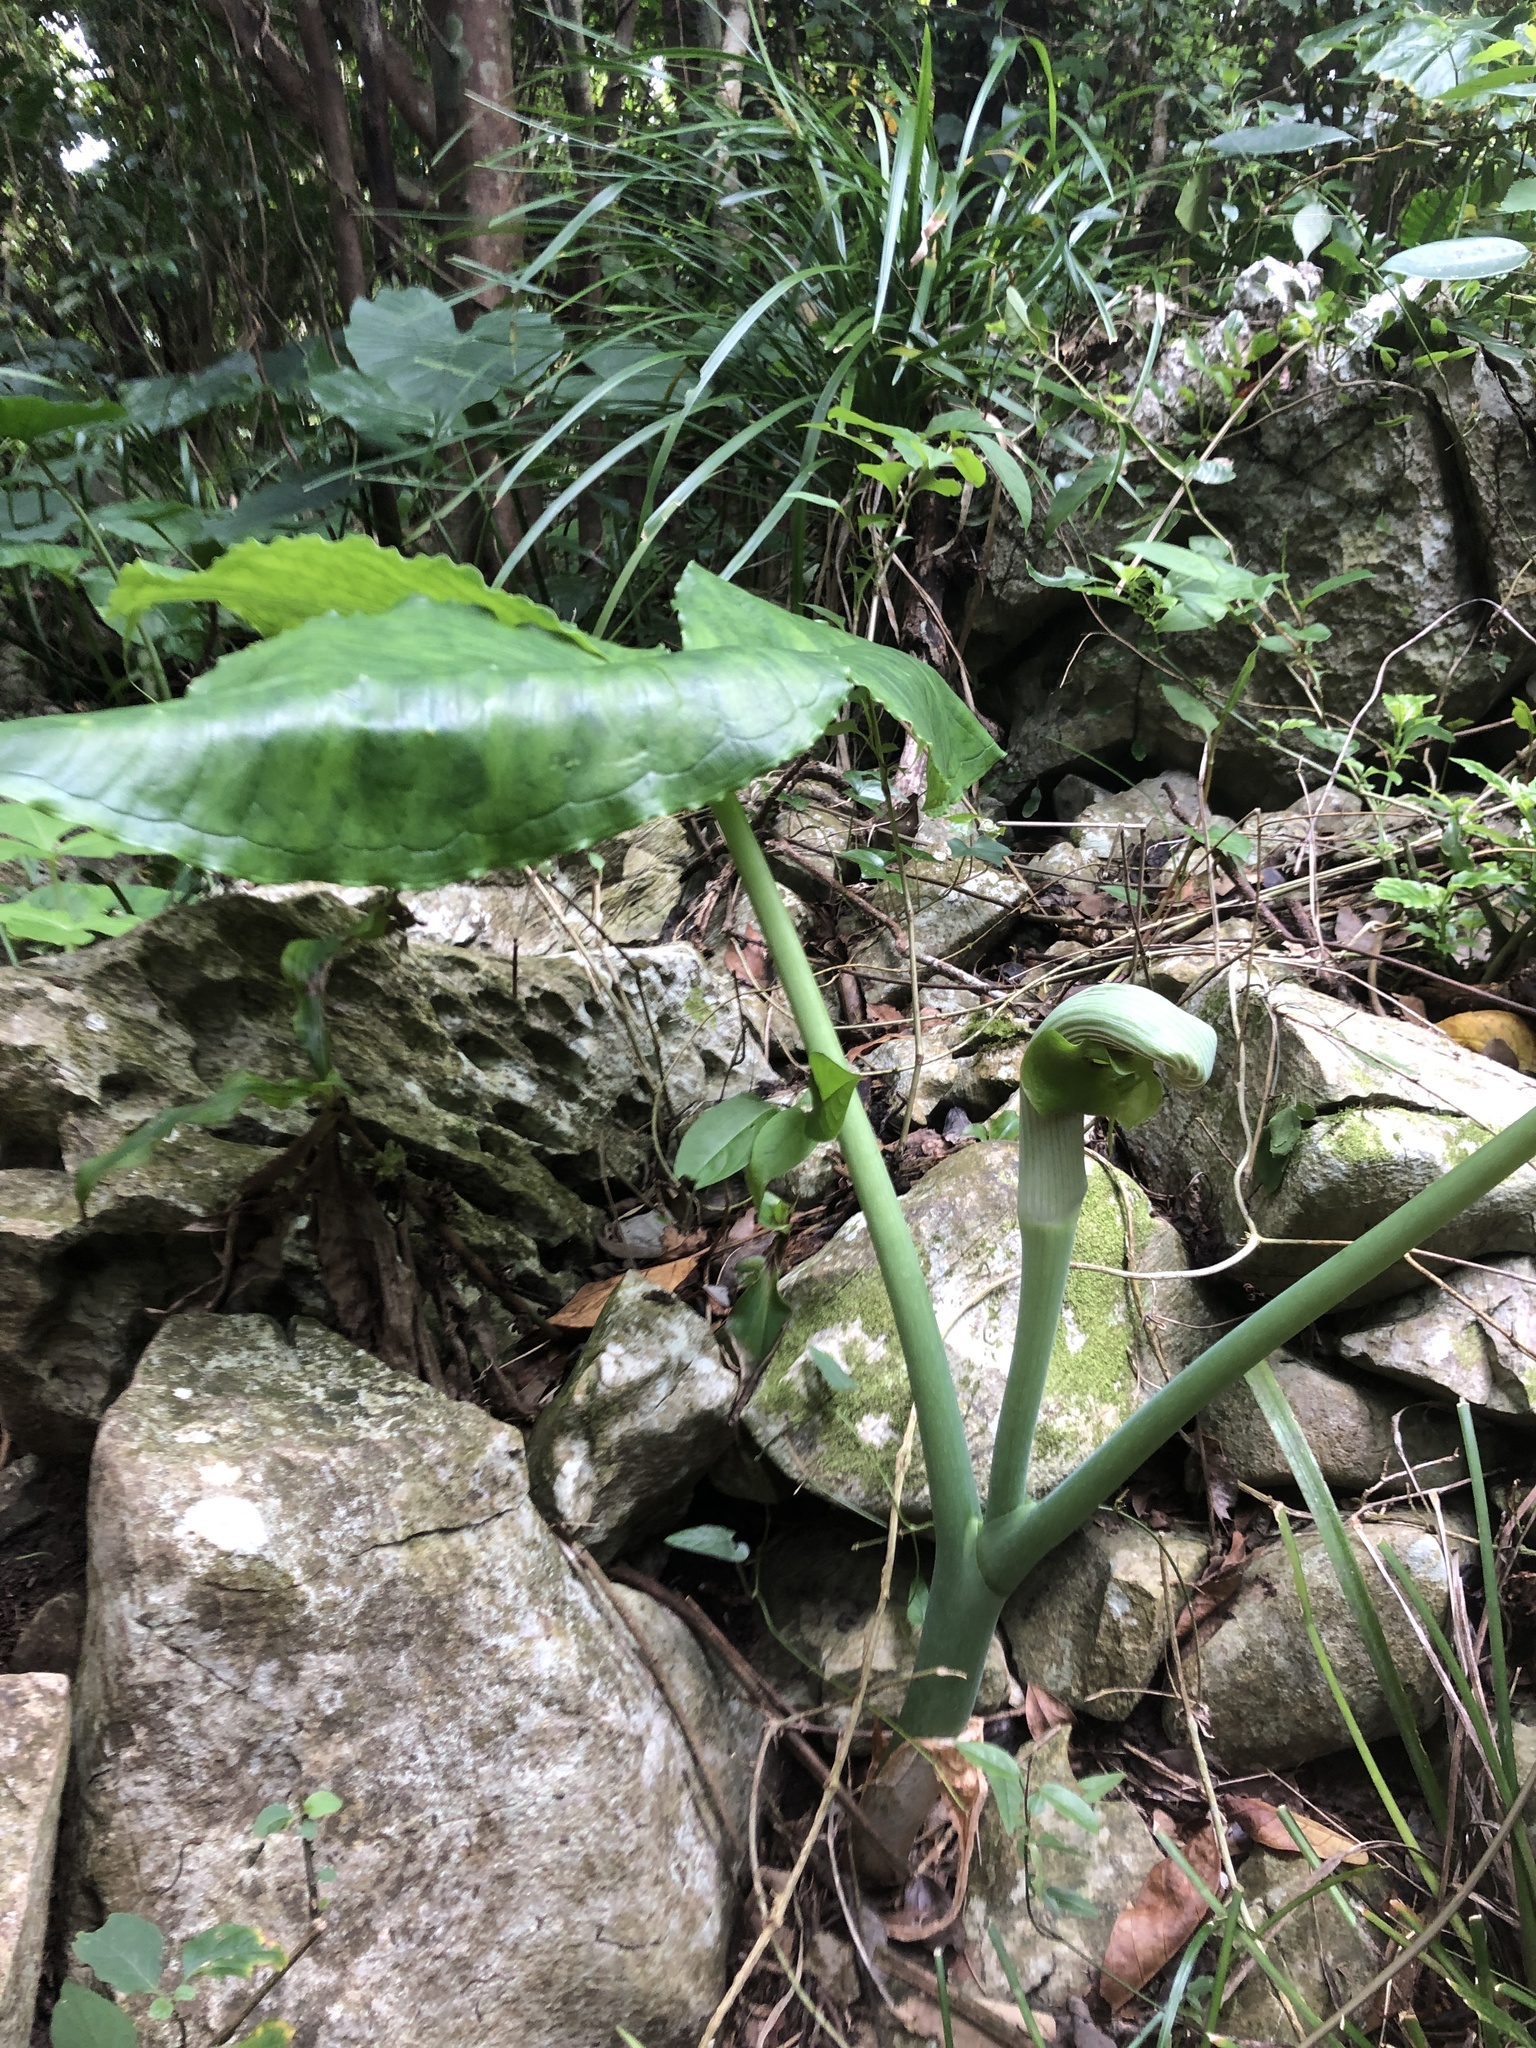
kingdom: Plantae
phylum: Tracheophyta
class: Liliopsida
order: Alismatales
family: Araceae
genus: Arisaema
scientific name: Arisaema ringens
